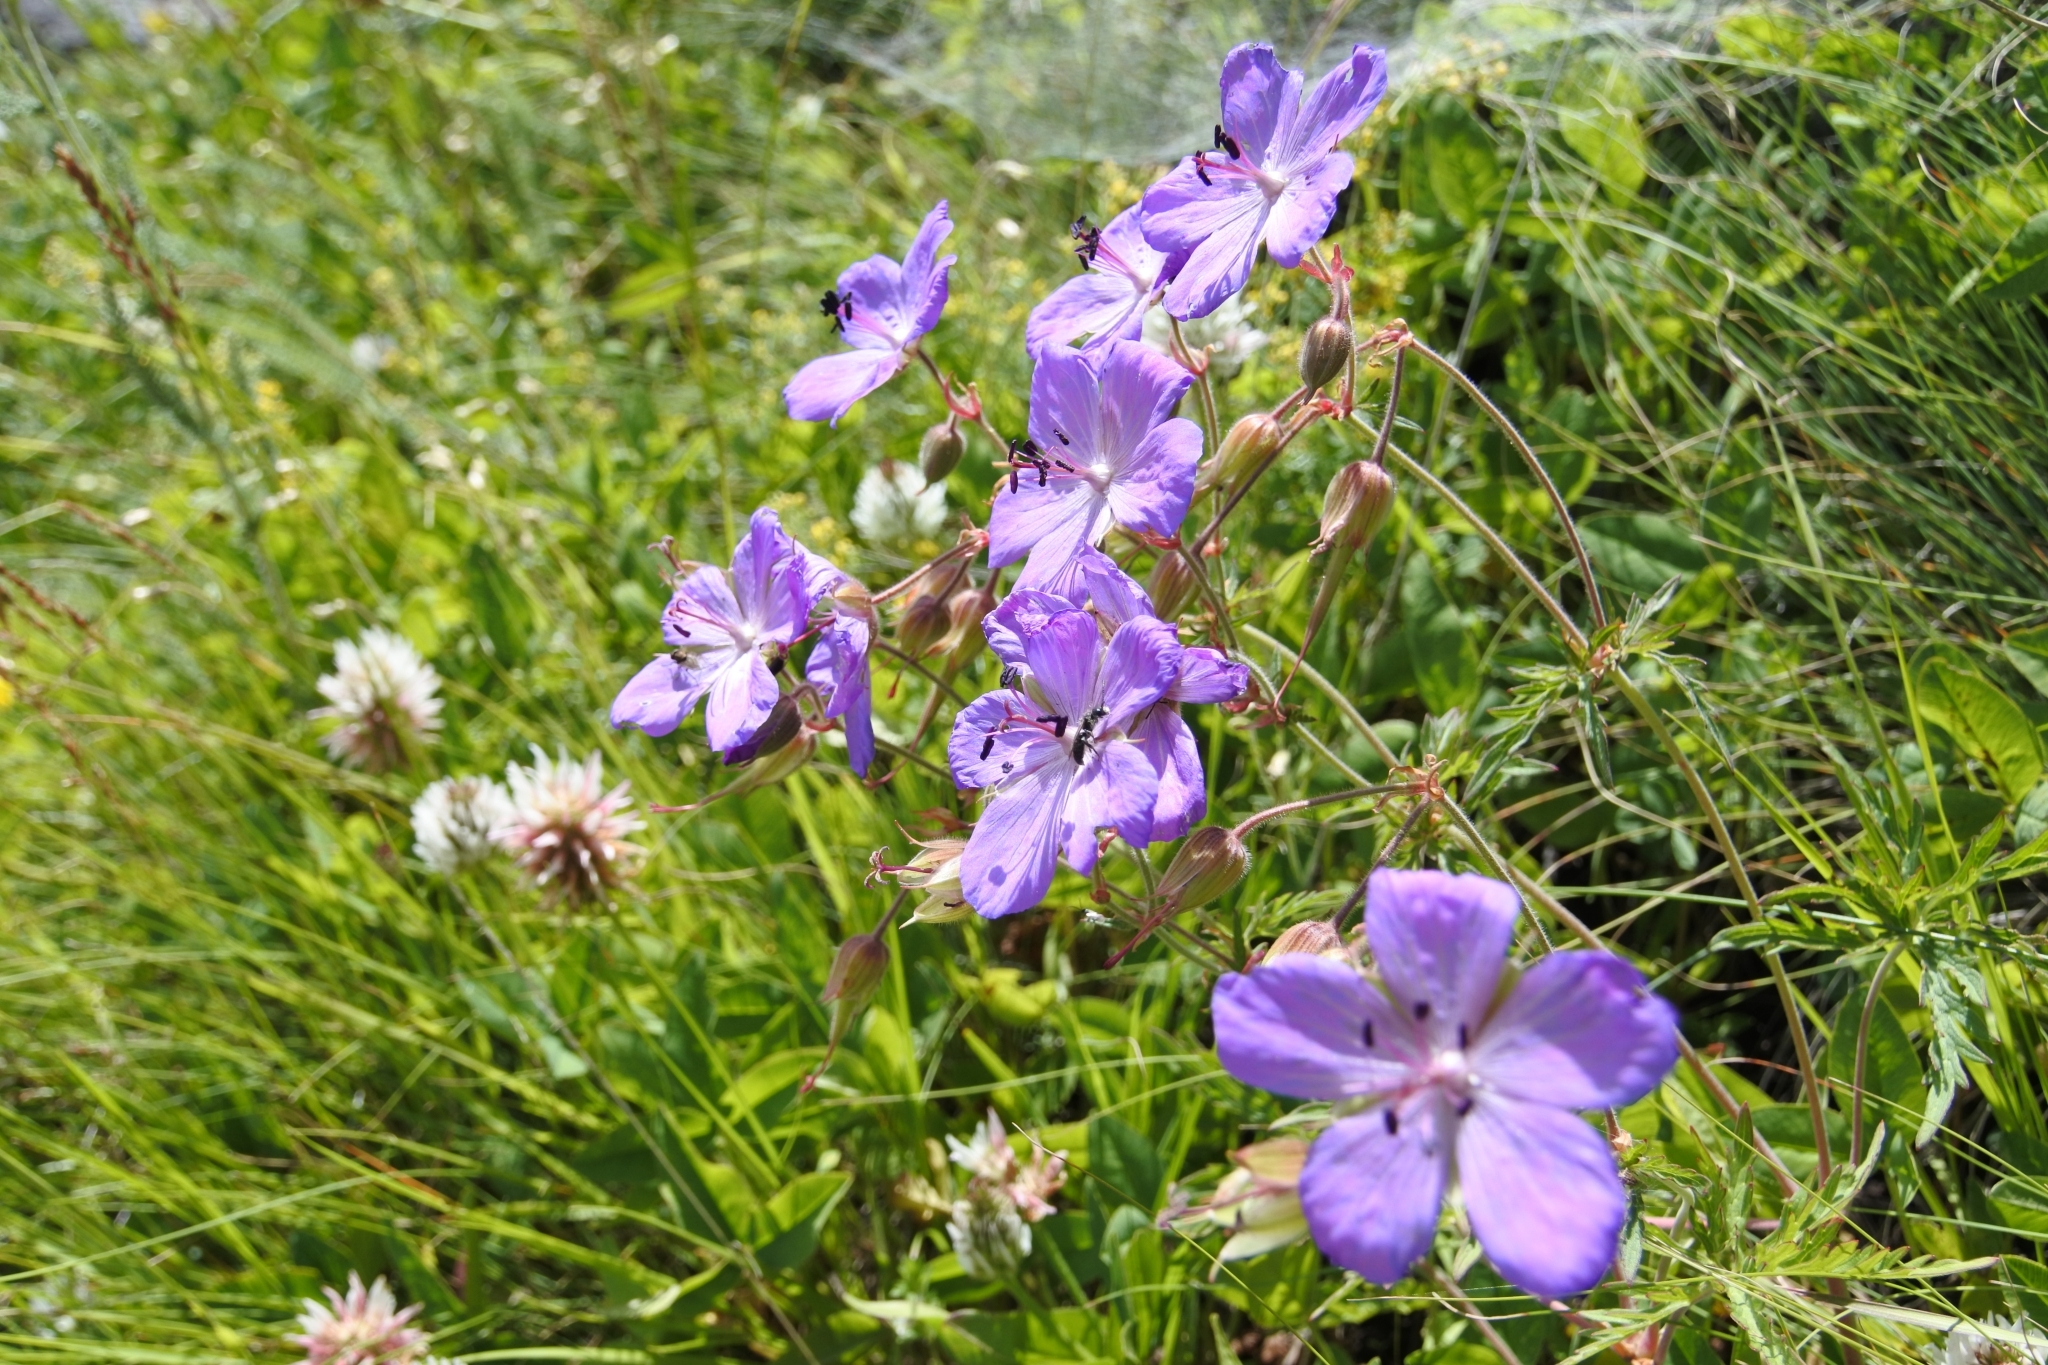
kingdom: Plantae
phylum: Tracheophyta
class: Magnoliopsida
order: Geraniales
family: Geraniaceae
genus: Geranium
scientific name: Geranium pratense
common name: Meadow crane's-bill
